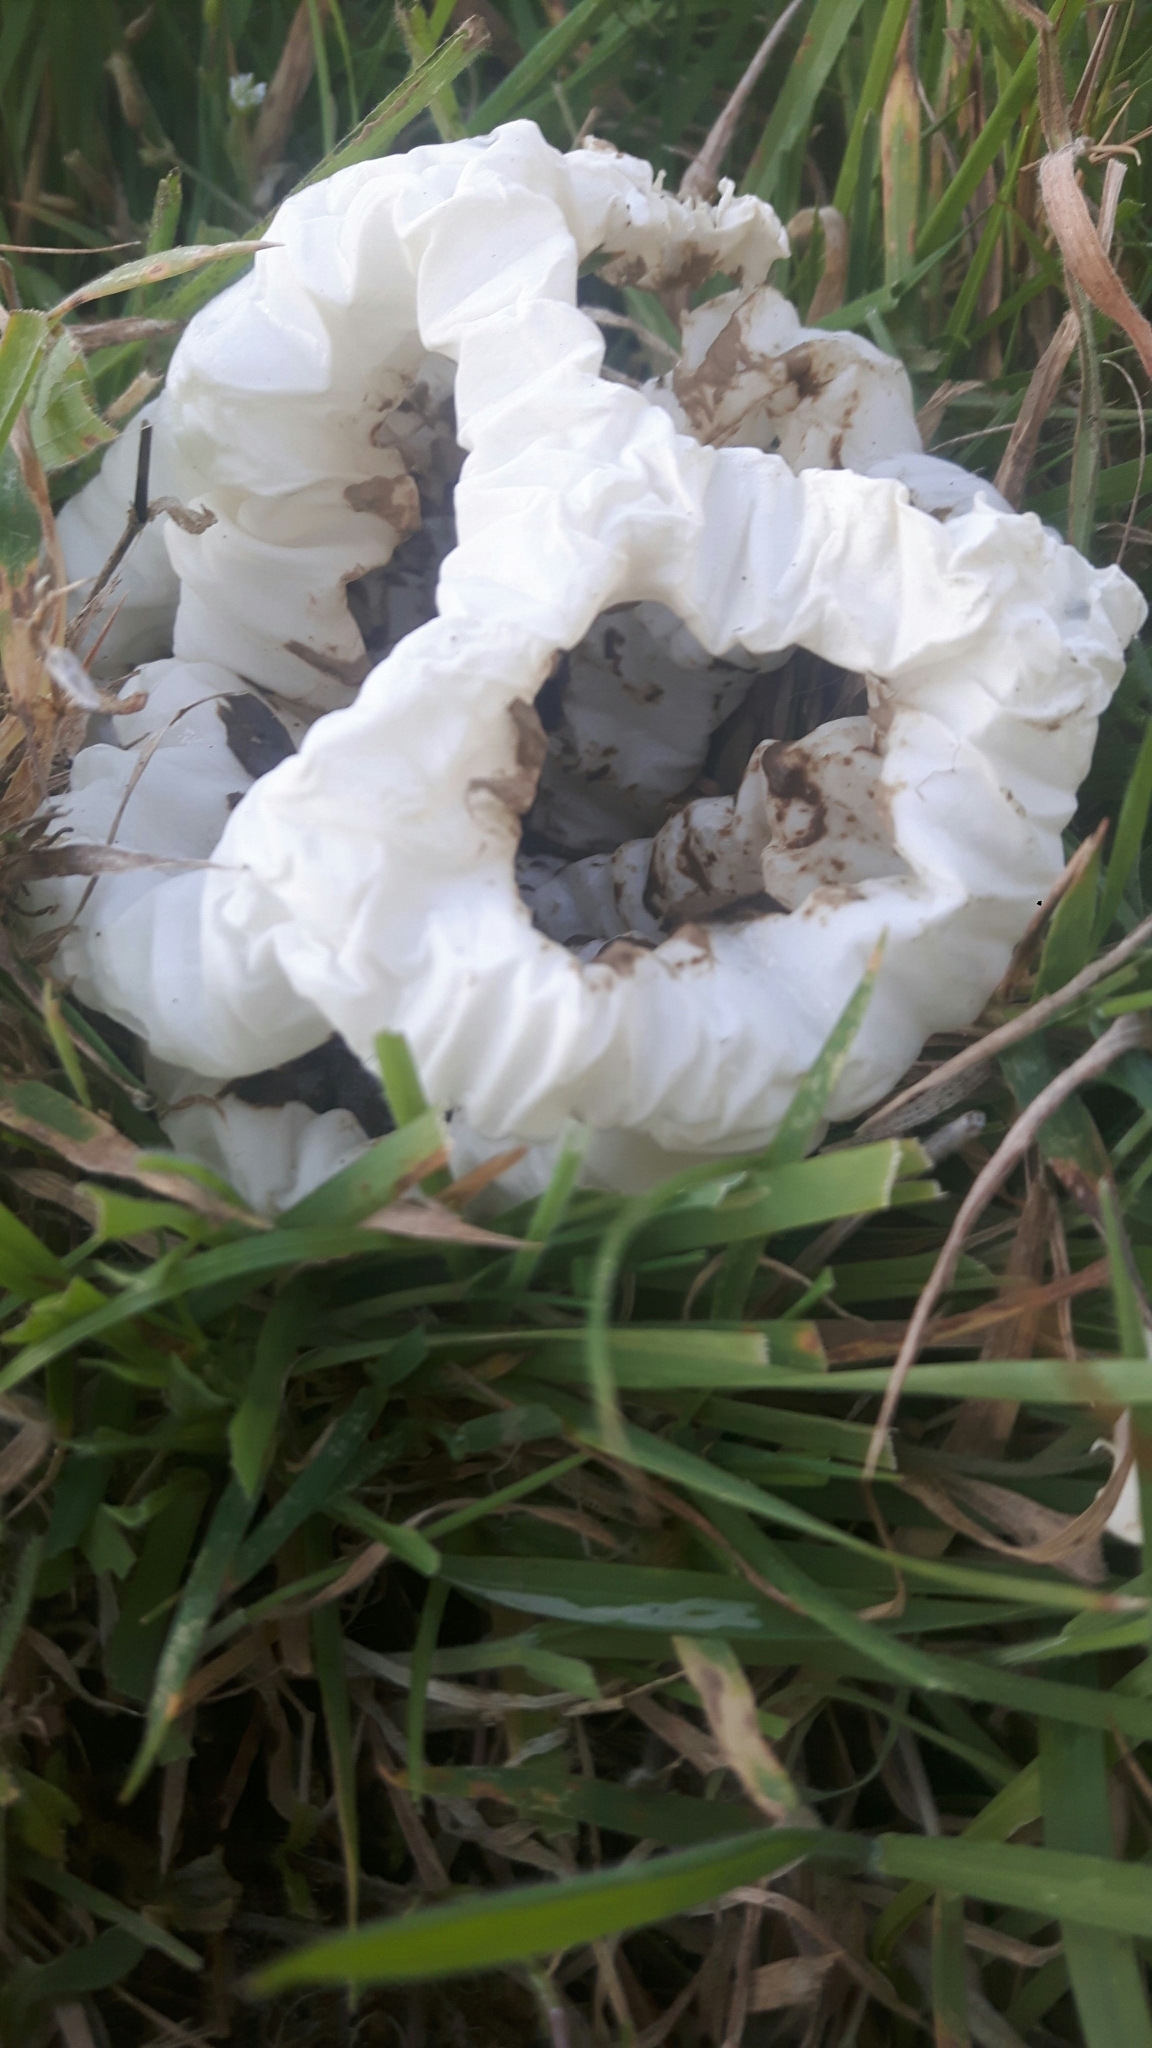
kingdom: Fungi
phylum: Basidiomycota
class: Agaricomycetes
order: Phallales
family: Phallaceae
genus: Ileodictyon
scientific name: Ileodictyon cibarium
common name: Basket fungus
